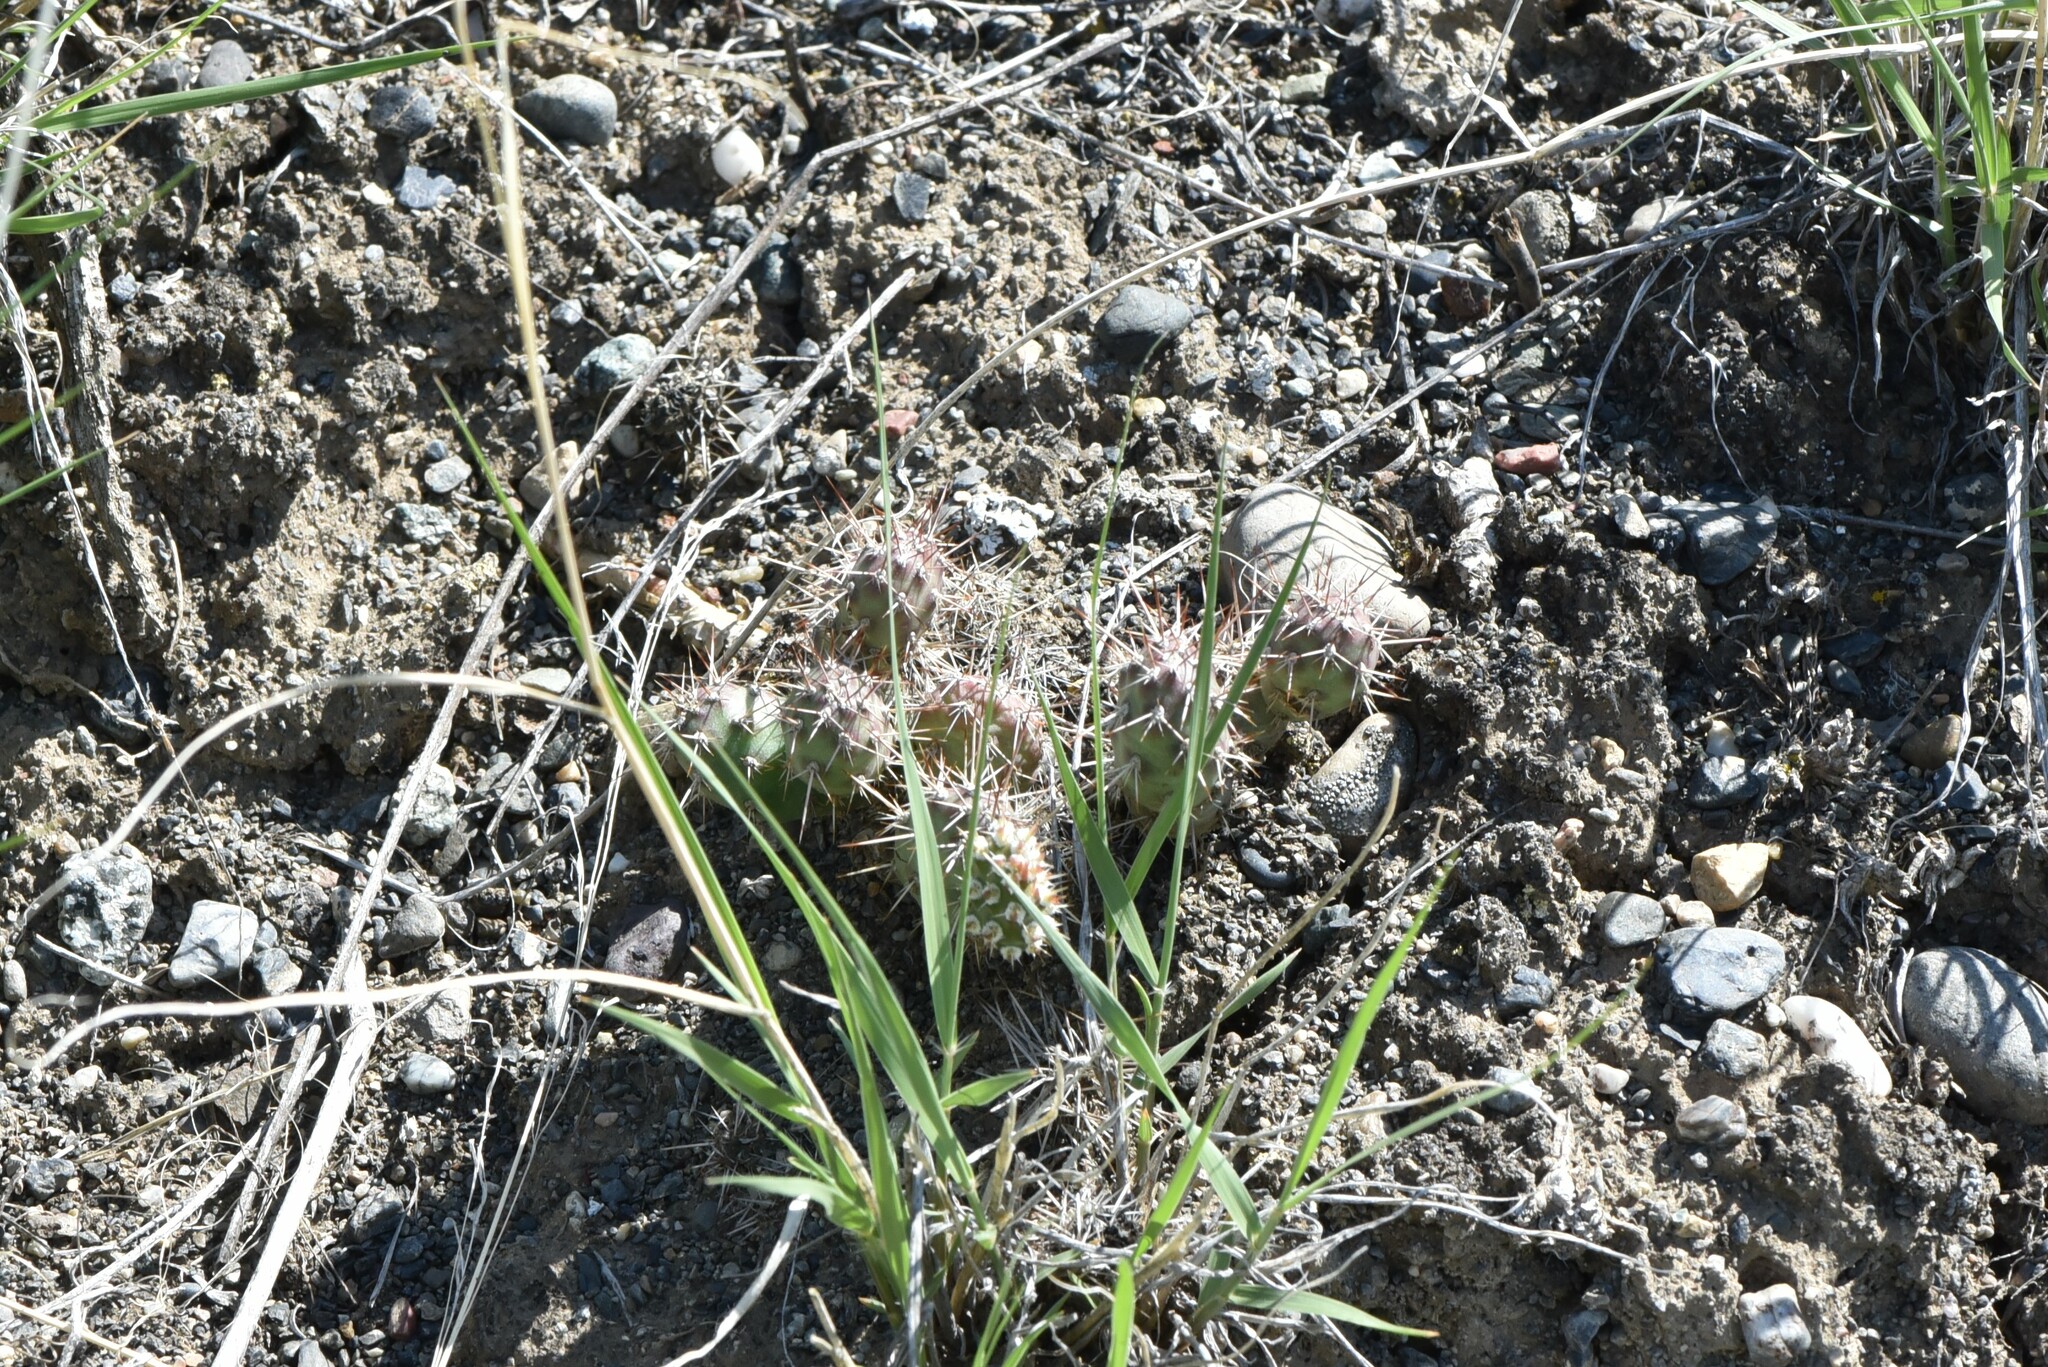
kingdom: Plantae
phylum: Tracheophyta
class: Magnoliopsida
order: Caryophyllales
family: Cactaceae
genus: Opuntia
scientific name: Opuntia fragilis
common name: Brittle cactus
